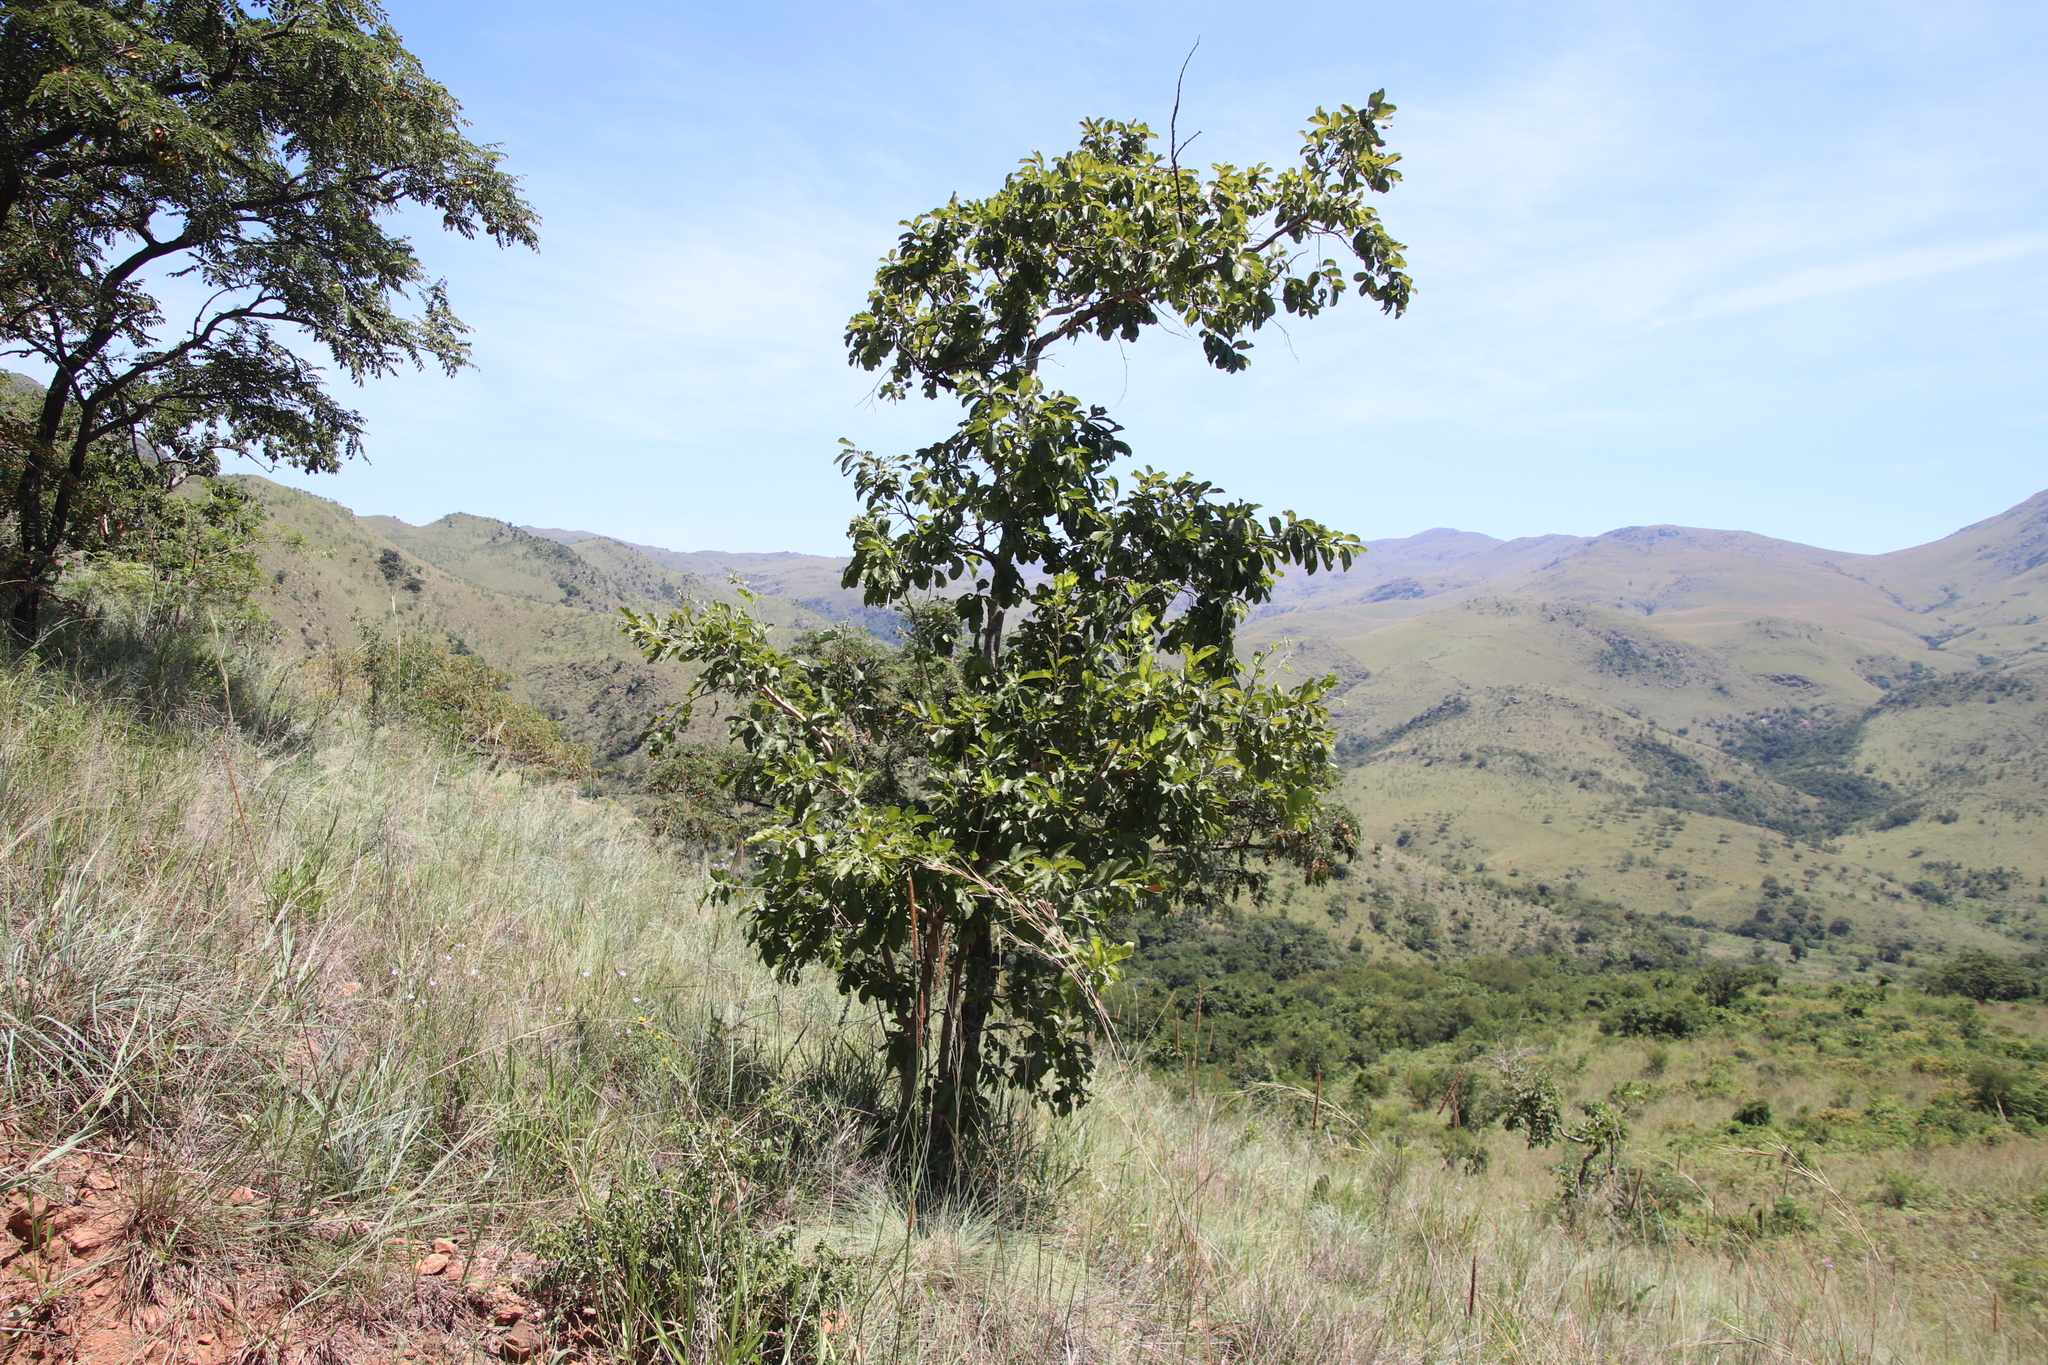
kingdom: Plantae
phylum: Tracheophyta
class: Magnoliopsida
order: Myrtales
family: Combretaceae
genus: Combretum
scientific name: Combretum molle
